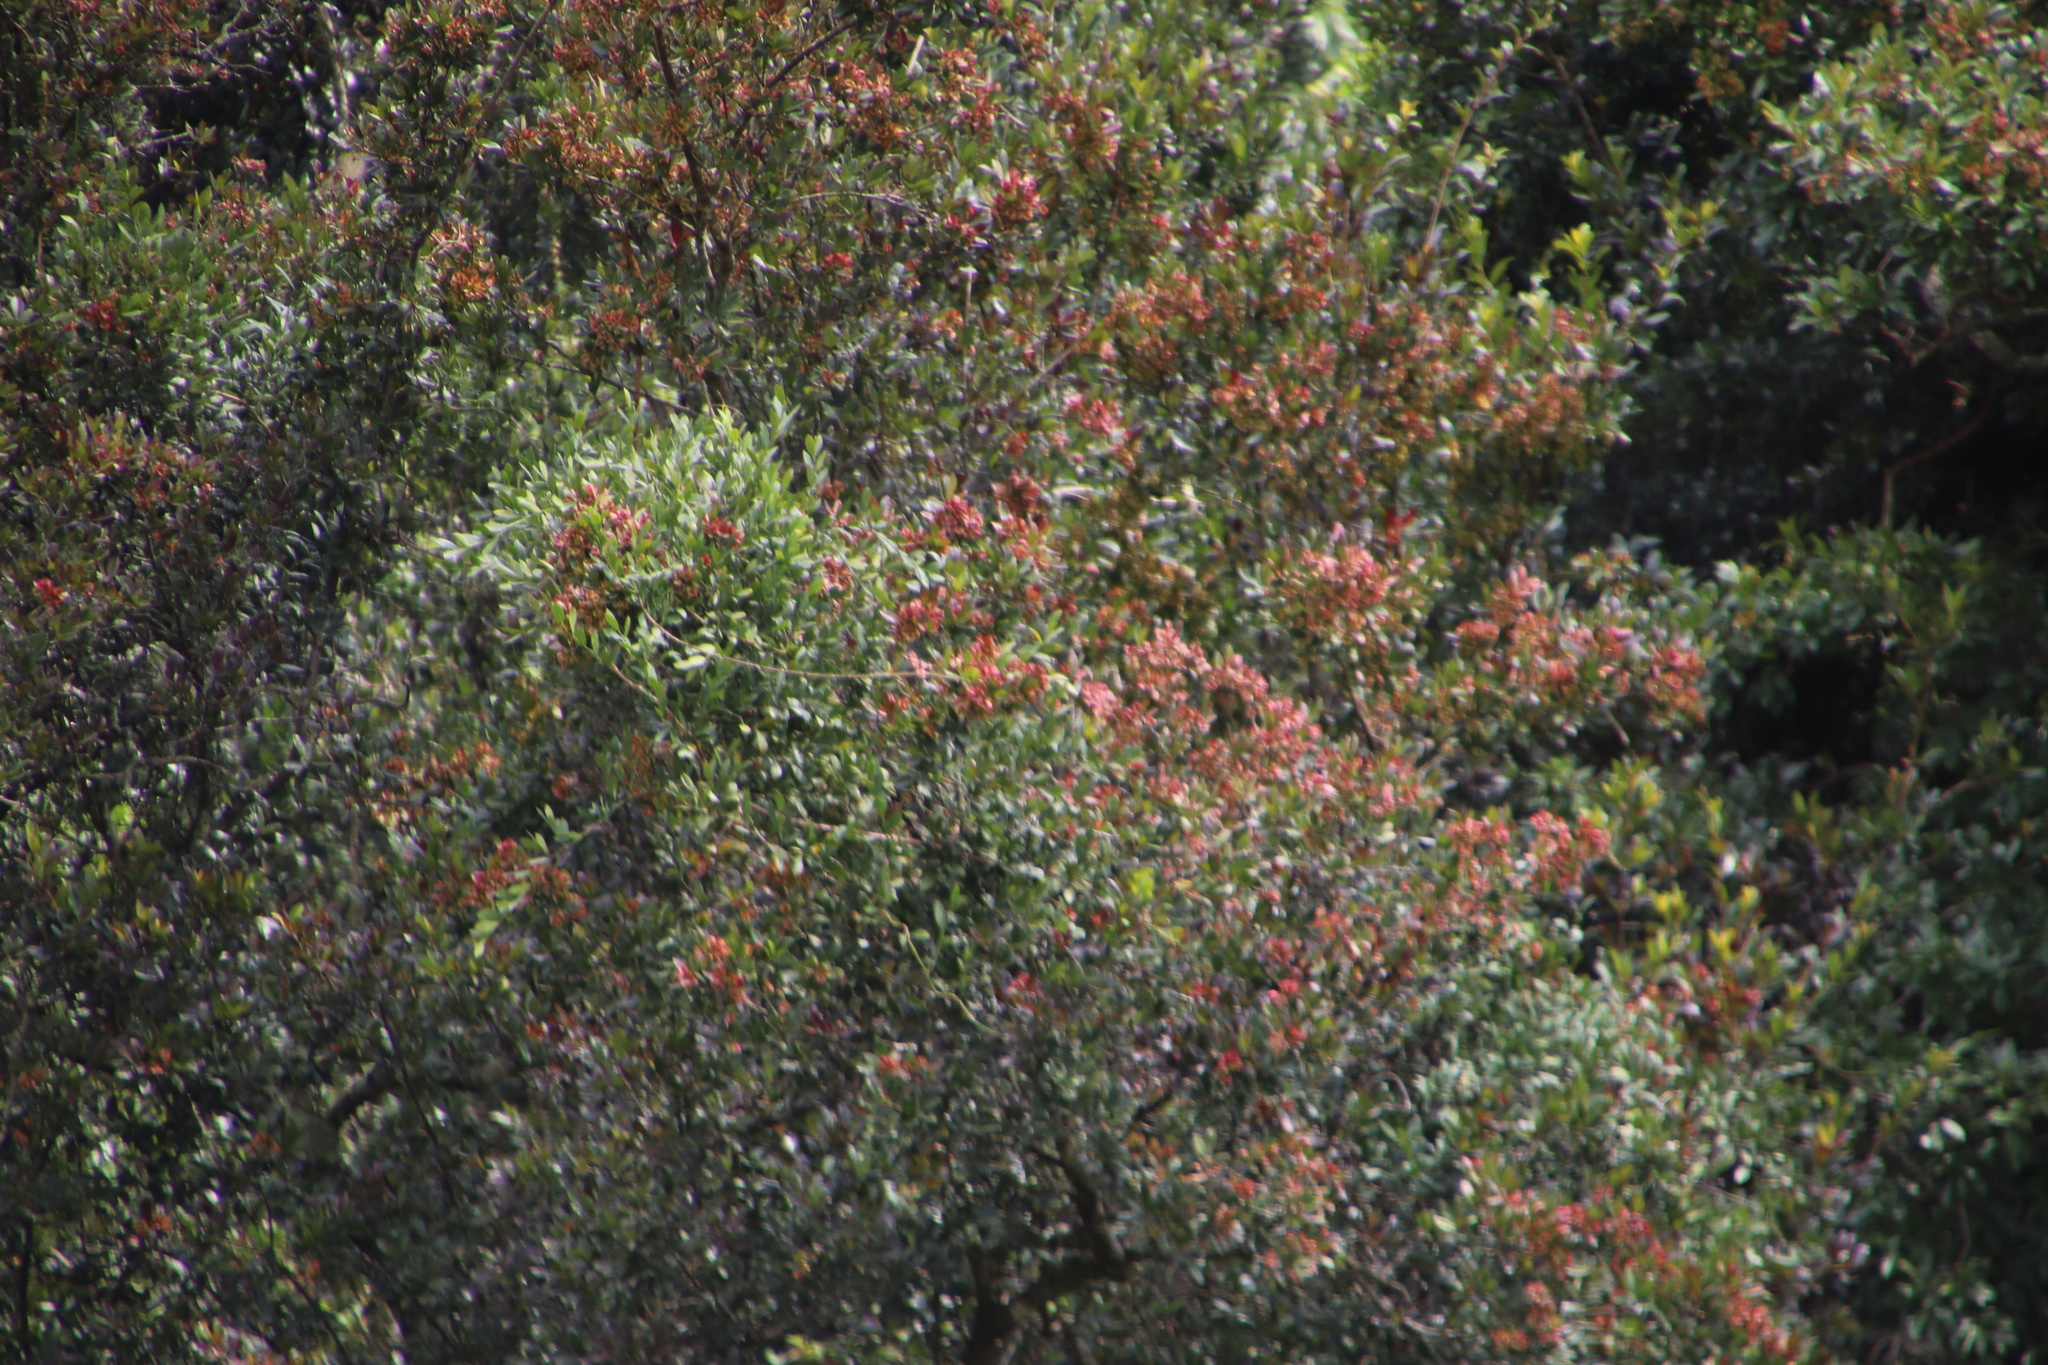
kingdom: Plantae
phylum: Tracheophyta
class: Magnoliopsida
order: Myrtales
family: Combretaceae
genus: Combretum
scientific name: Combretum kraussii
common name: Forest bushwillow
